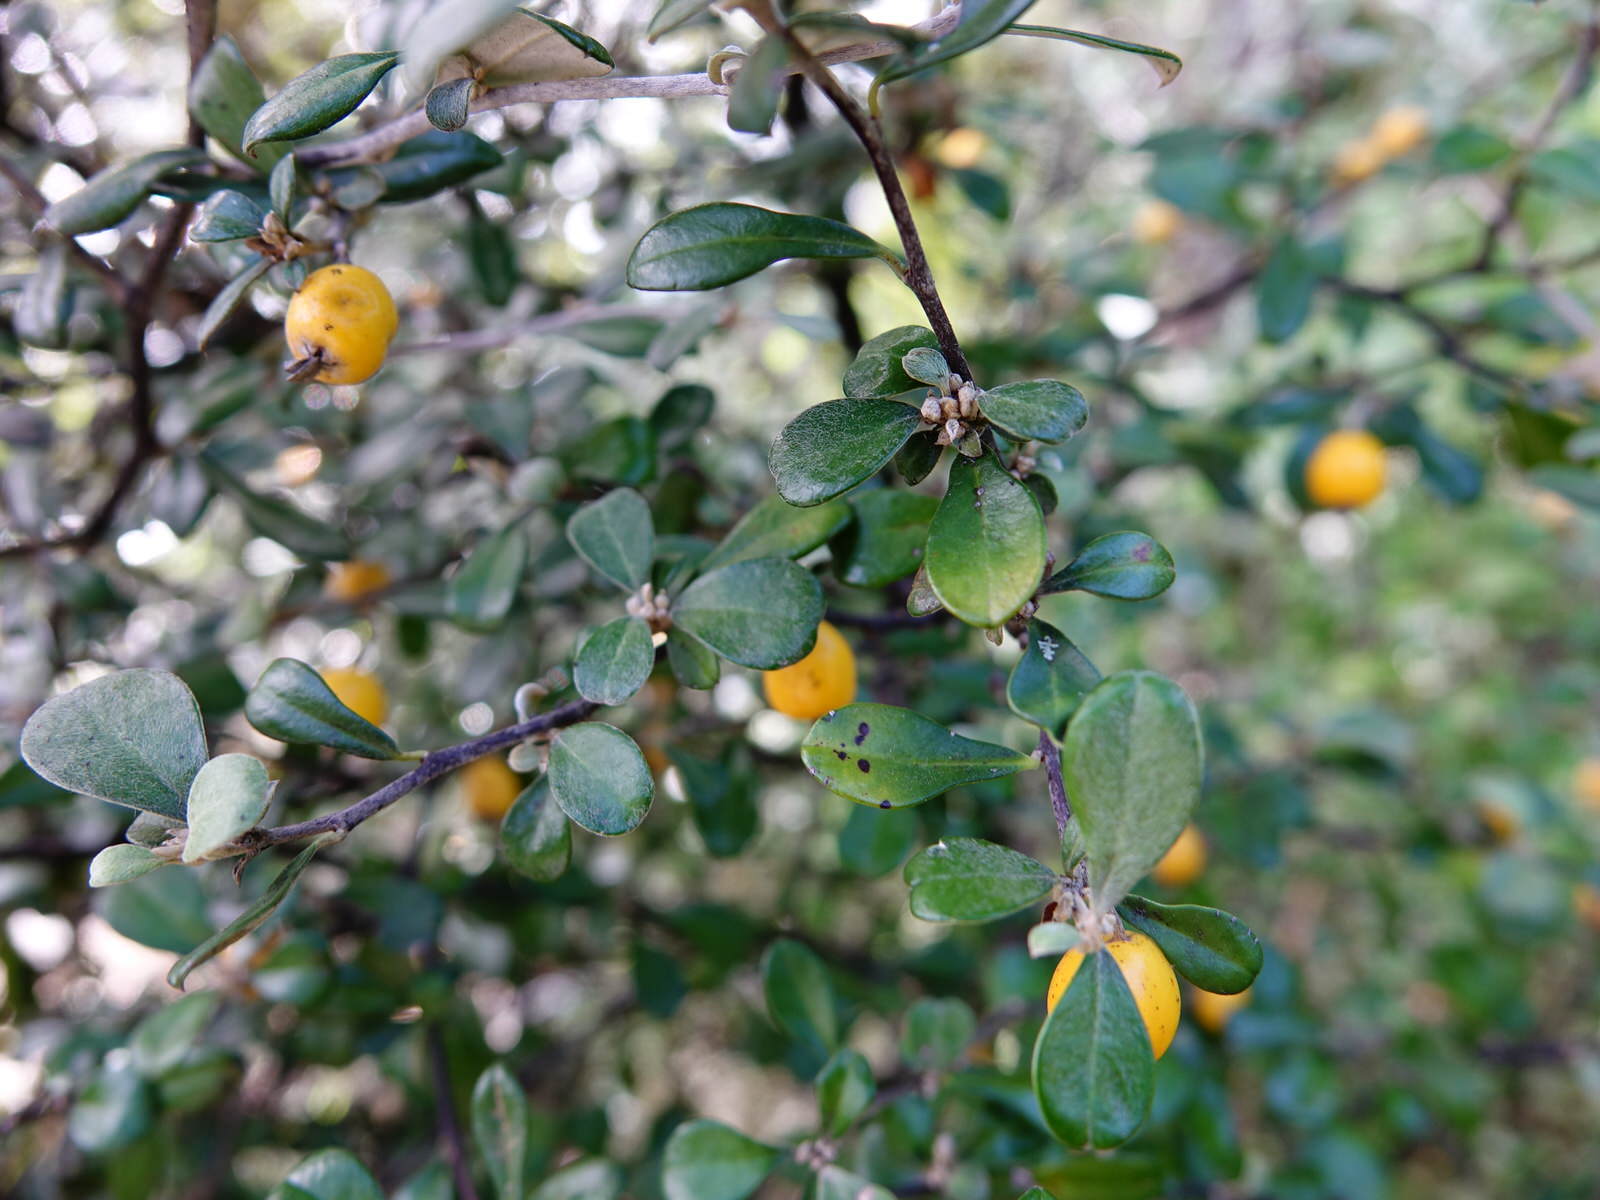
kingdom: Plantae
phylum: Tracheophyta
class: Magnoliopsida
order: Asterales
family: Argophyllaceae
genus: Corokia
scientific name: Corokia cotoneaster
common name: Wire nettingbush
